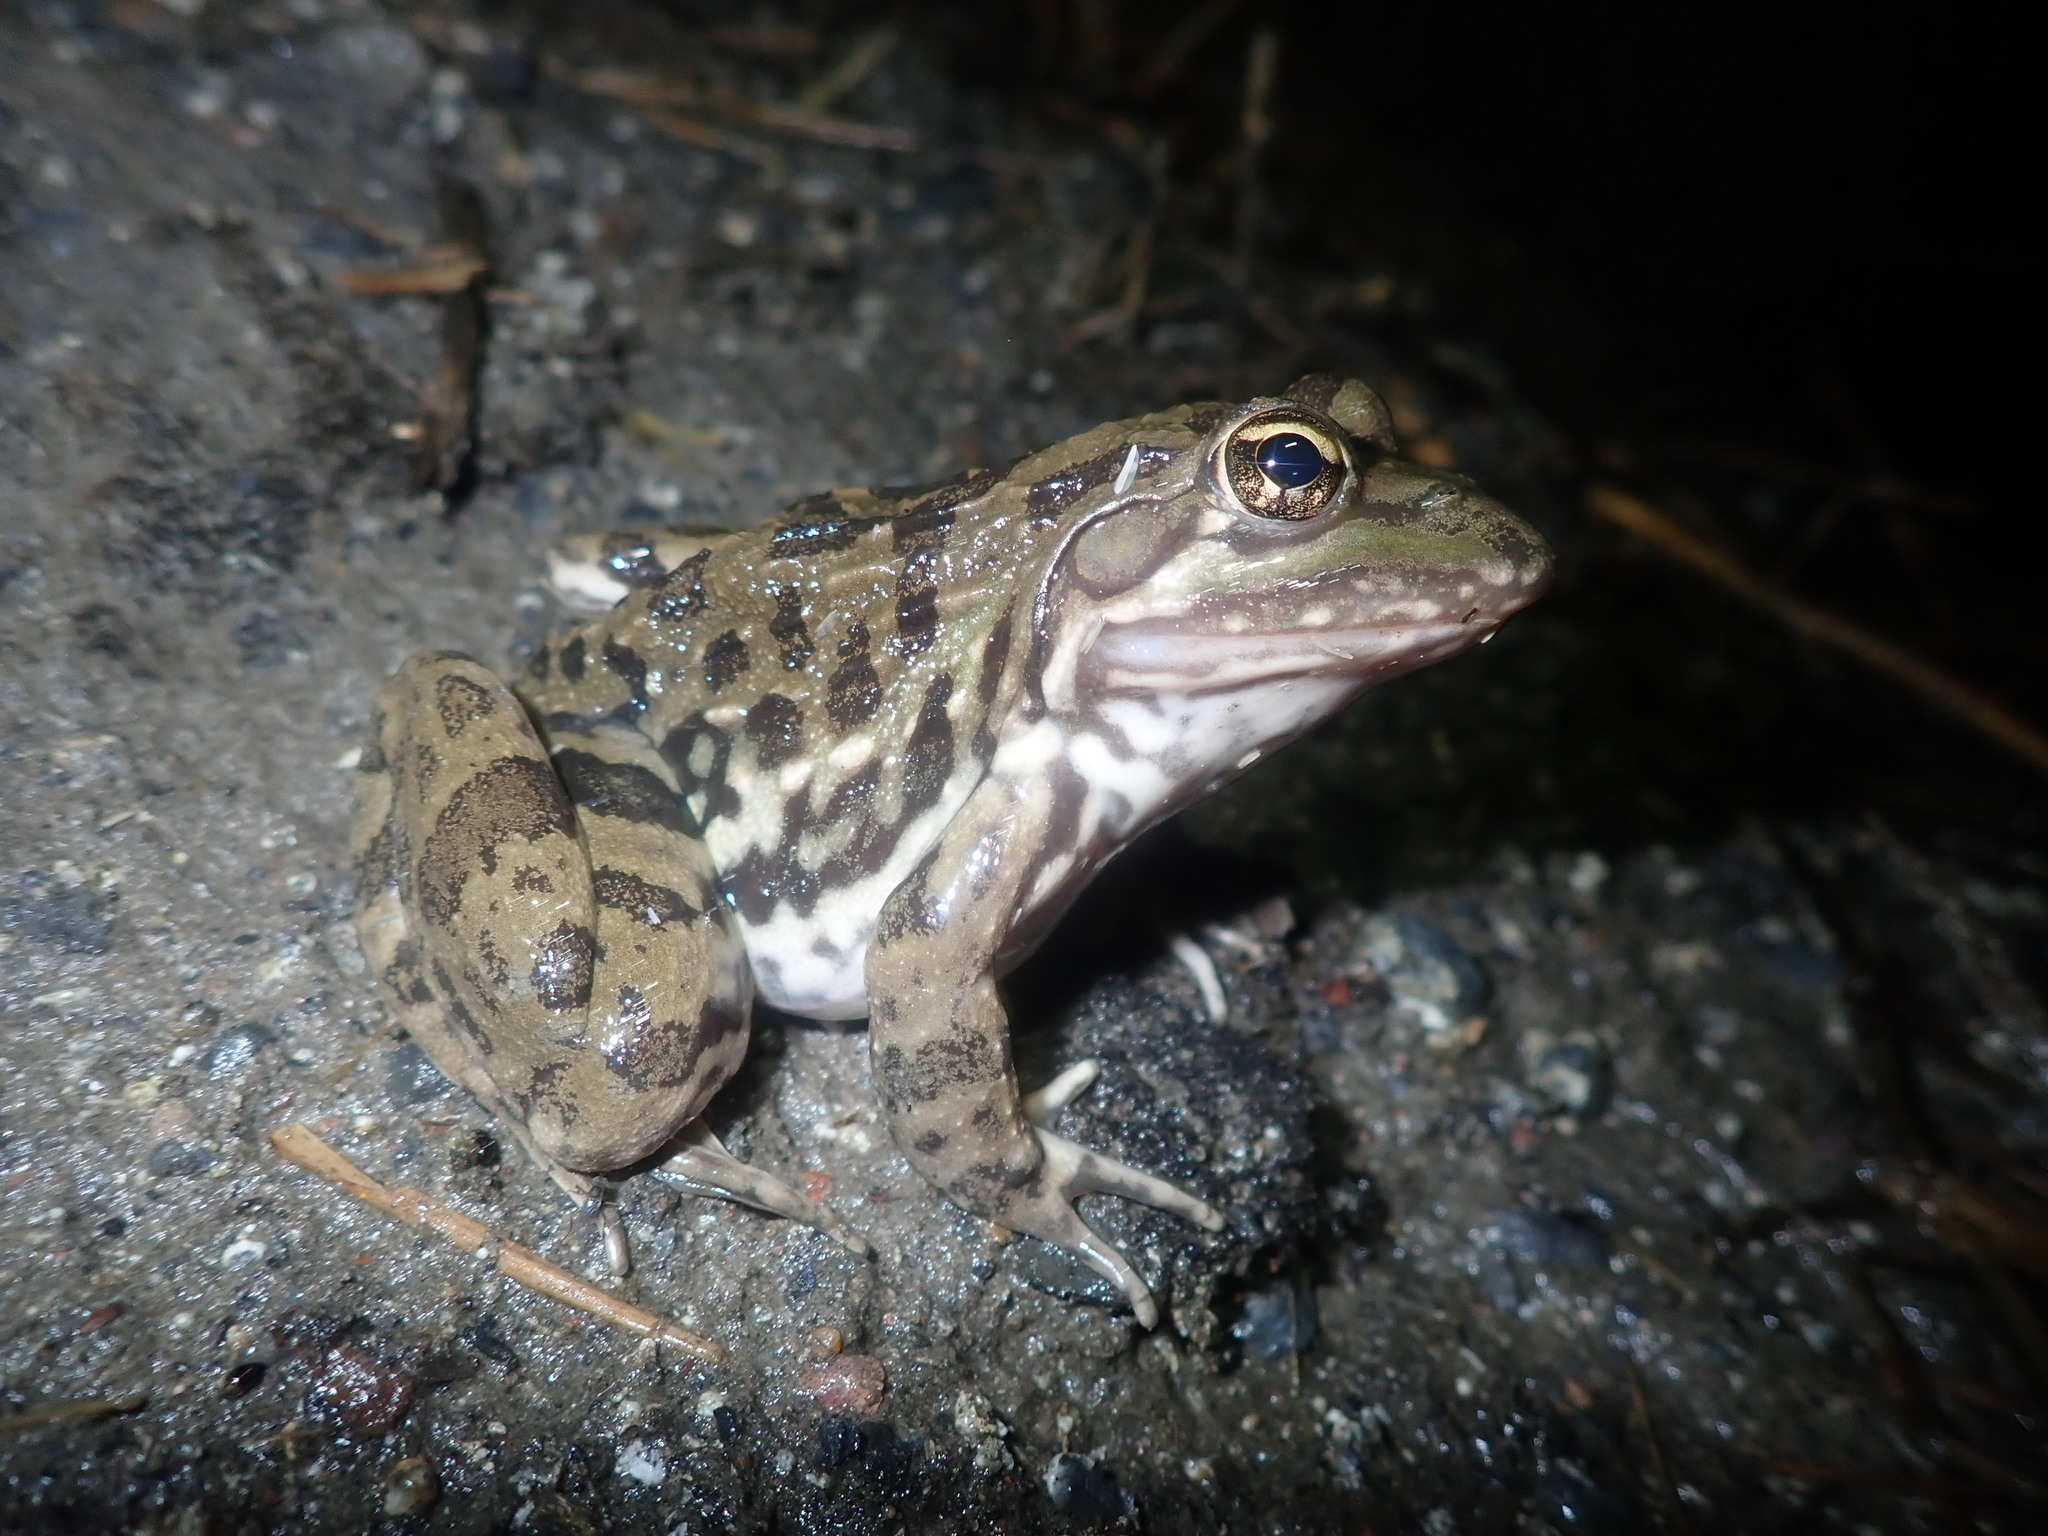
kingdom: Animalia
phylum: Chordata
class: Amphibia
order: Anura
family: Pyxicephalidae
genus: Amietia
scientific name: Amietia fuscigula
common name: Cape rana
